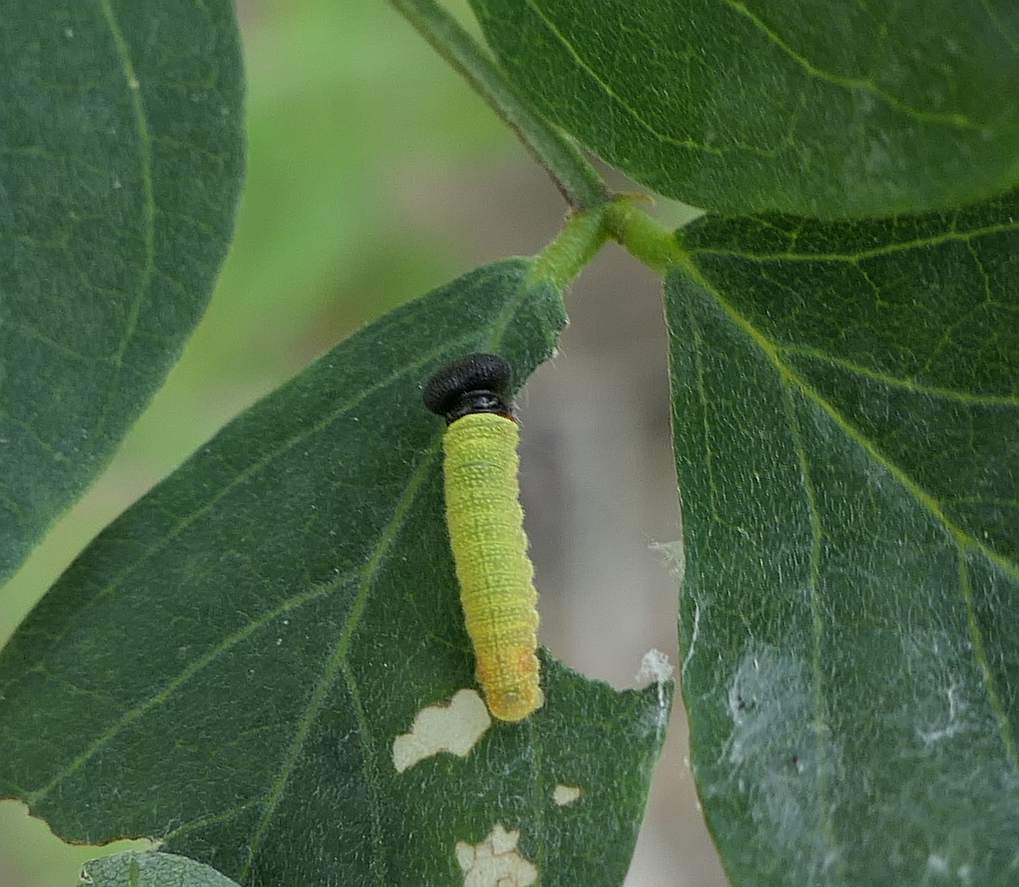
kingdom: Animalia
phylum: Arthropoda
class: Insecta
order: Lepidoptera
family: Hesperiidae
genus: Epargyreus
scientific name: Epargyreus clarus
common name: Silver-spotted skipper
